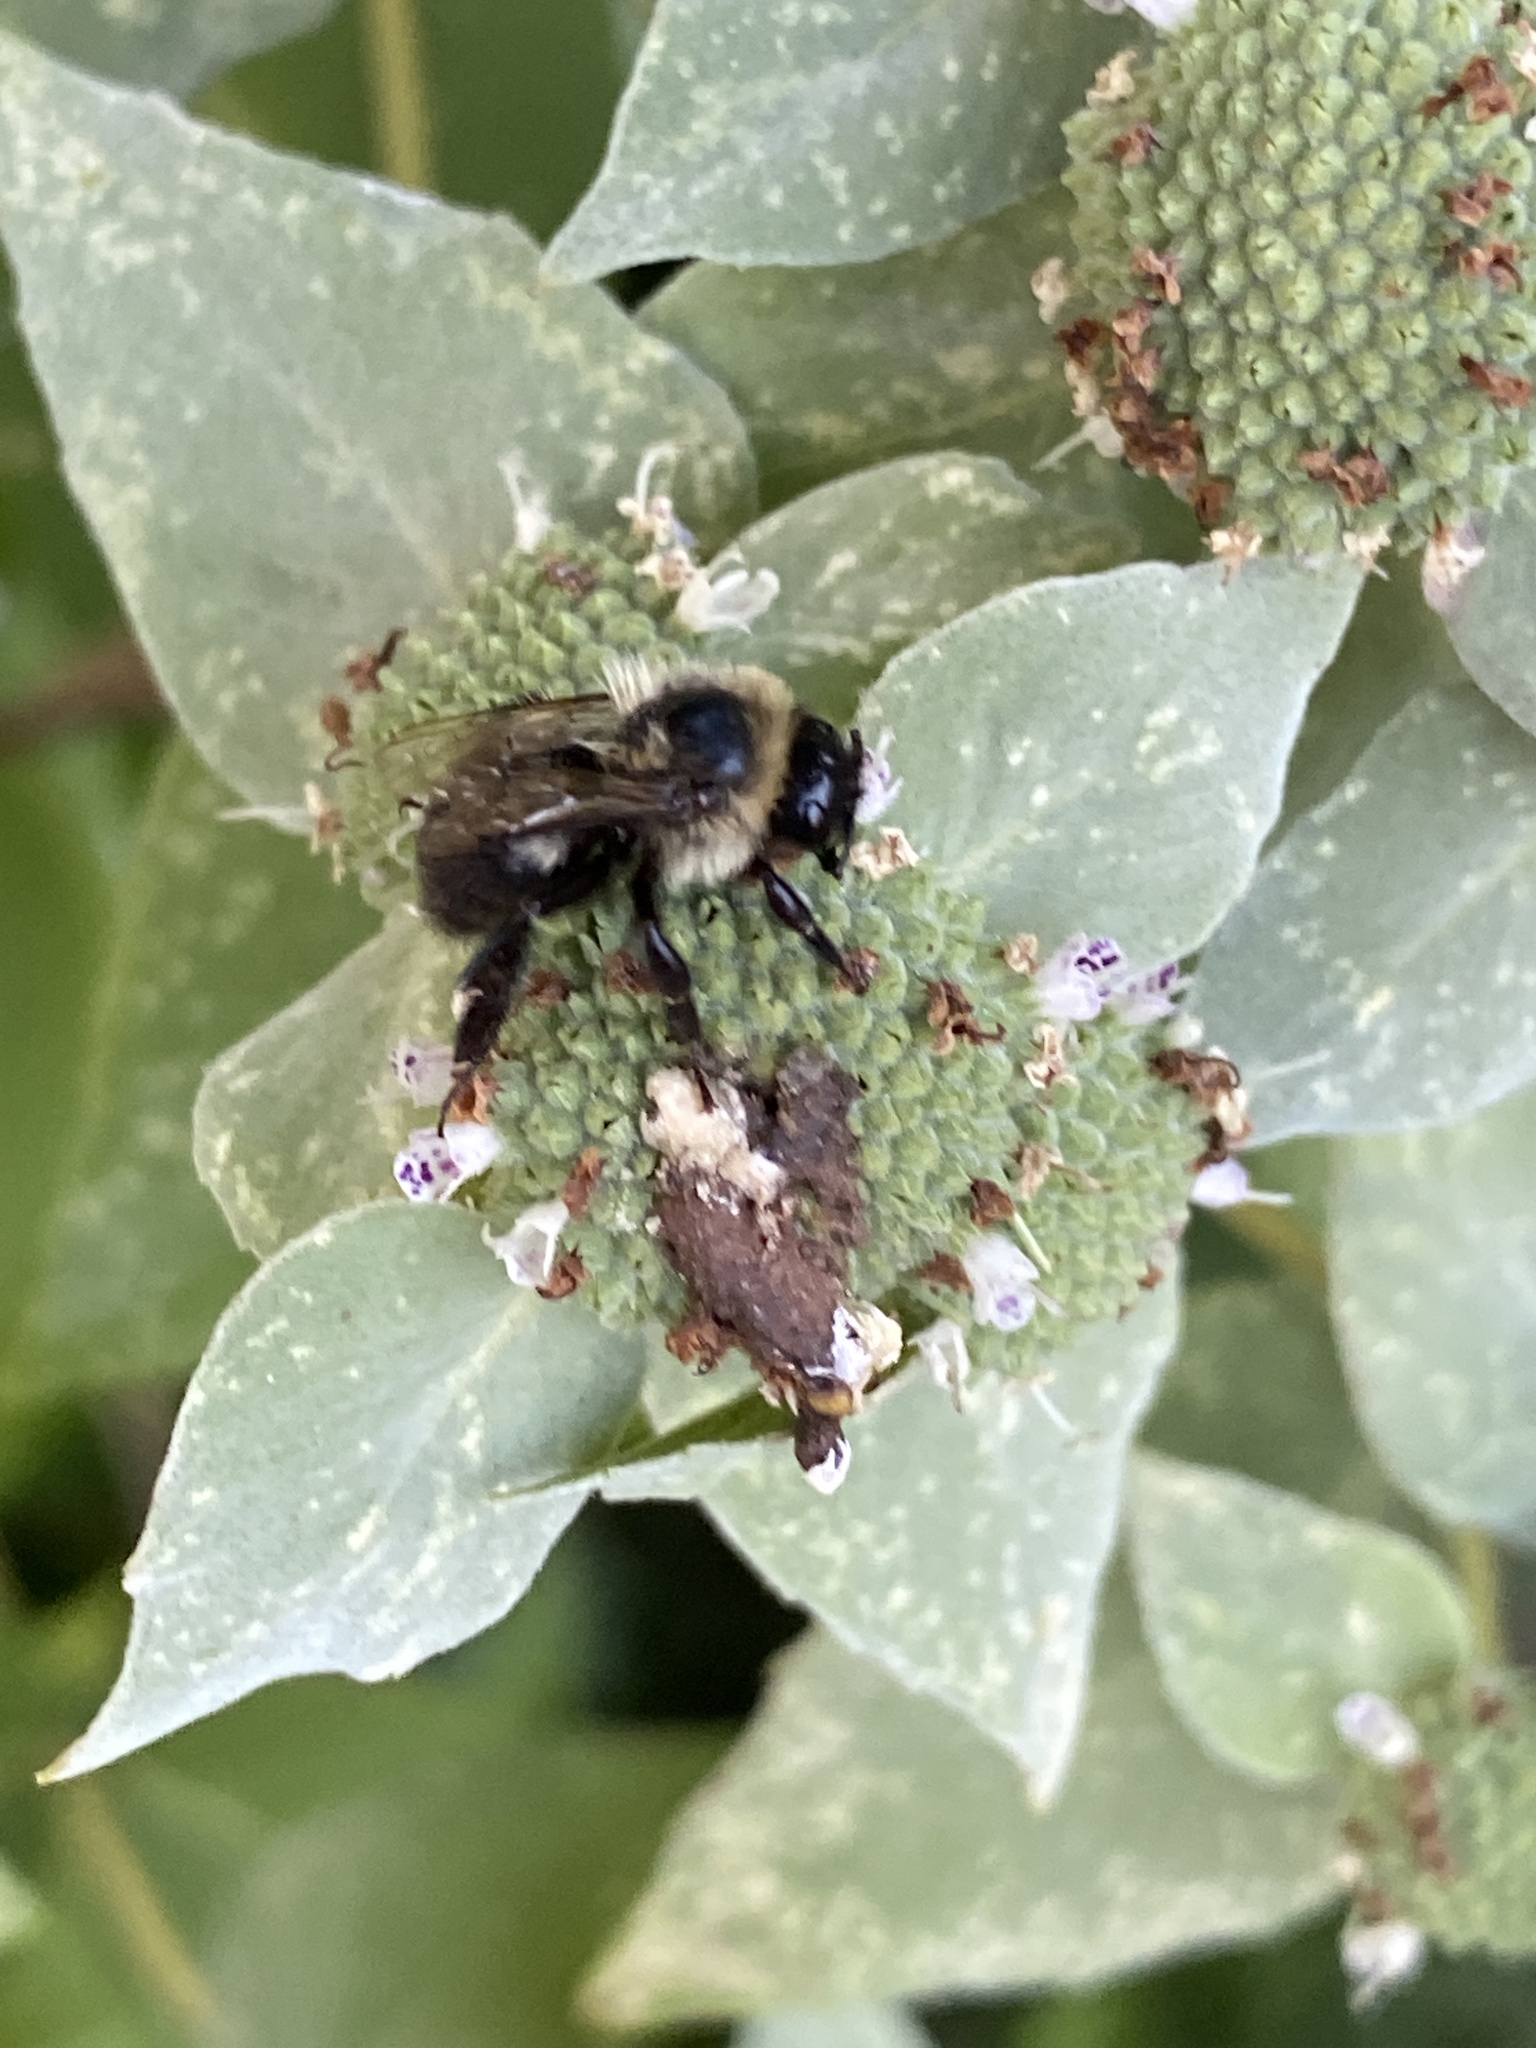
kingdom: Animalia
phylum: Arthropoda
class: Insecta
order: Hymenoptera
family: Apidae
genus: Bombus
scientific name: Bombus impatiens
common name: Common eastern bumble bee
